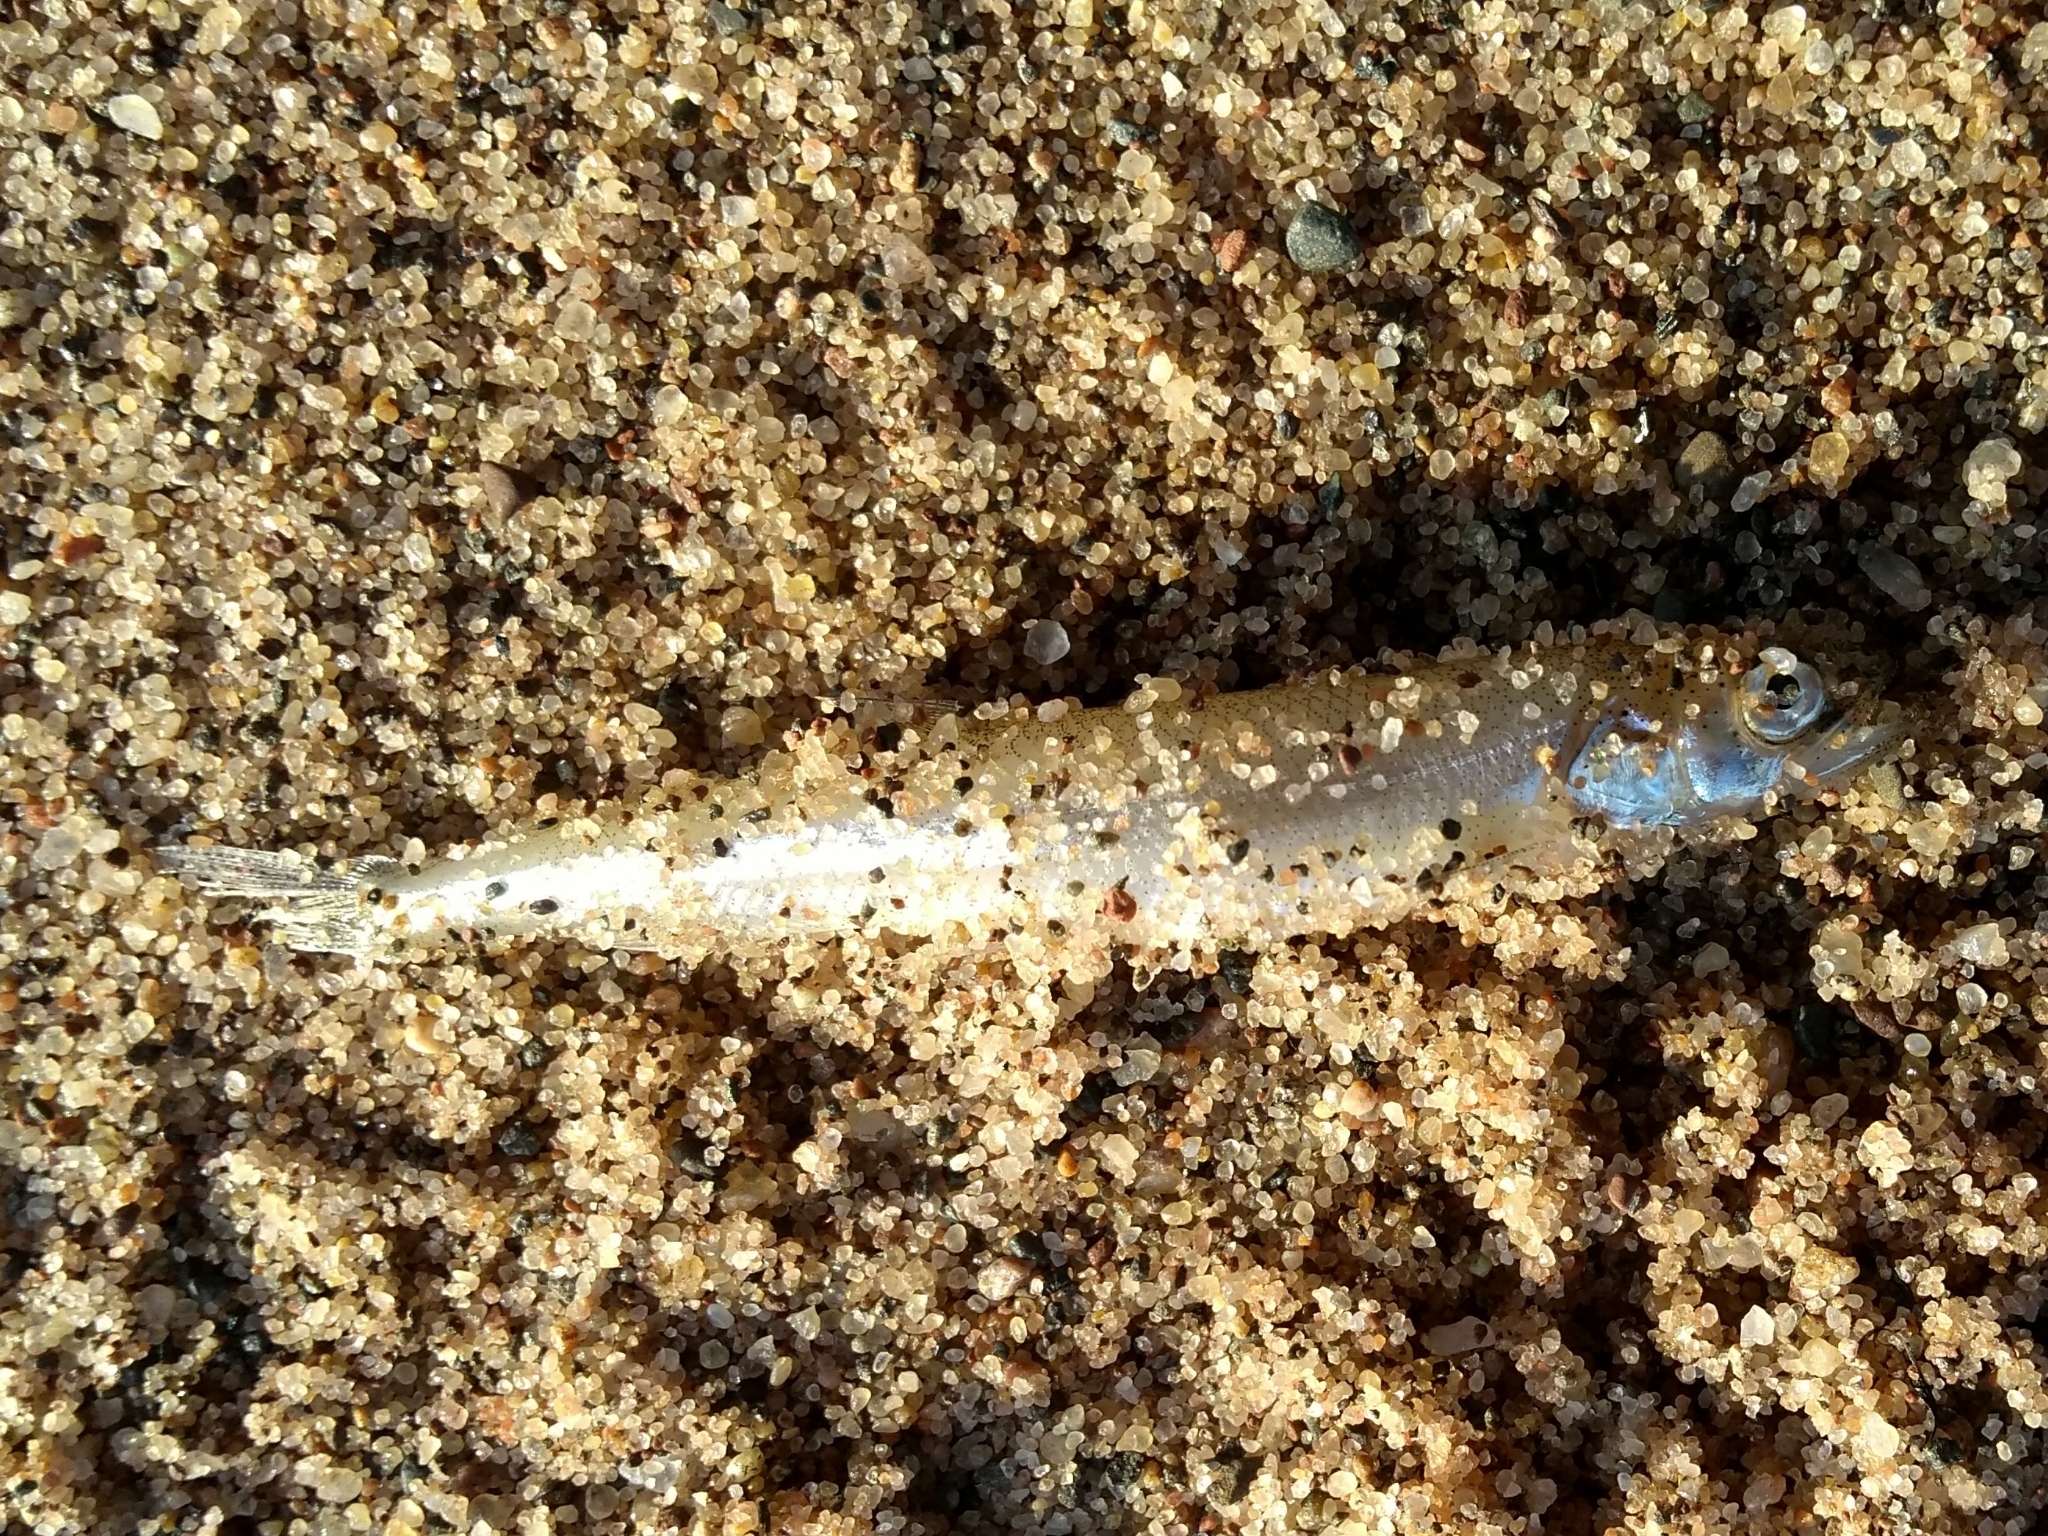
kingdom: Animalia
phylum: Chordata
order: Osmeriformes
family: Osmeridae
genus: Osmerus
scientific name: Osmerus mordax
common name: Rainbow smelt
